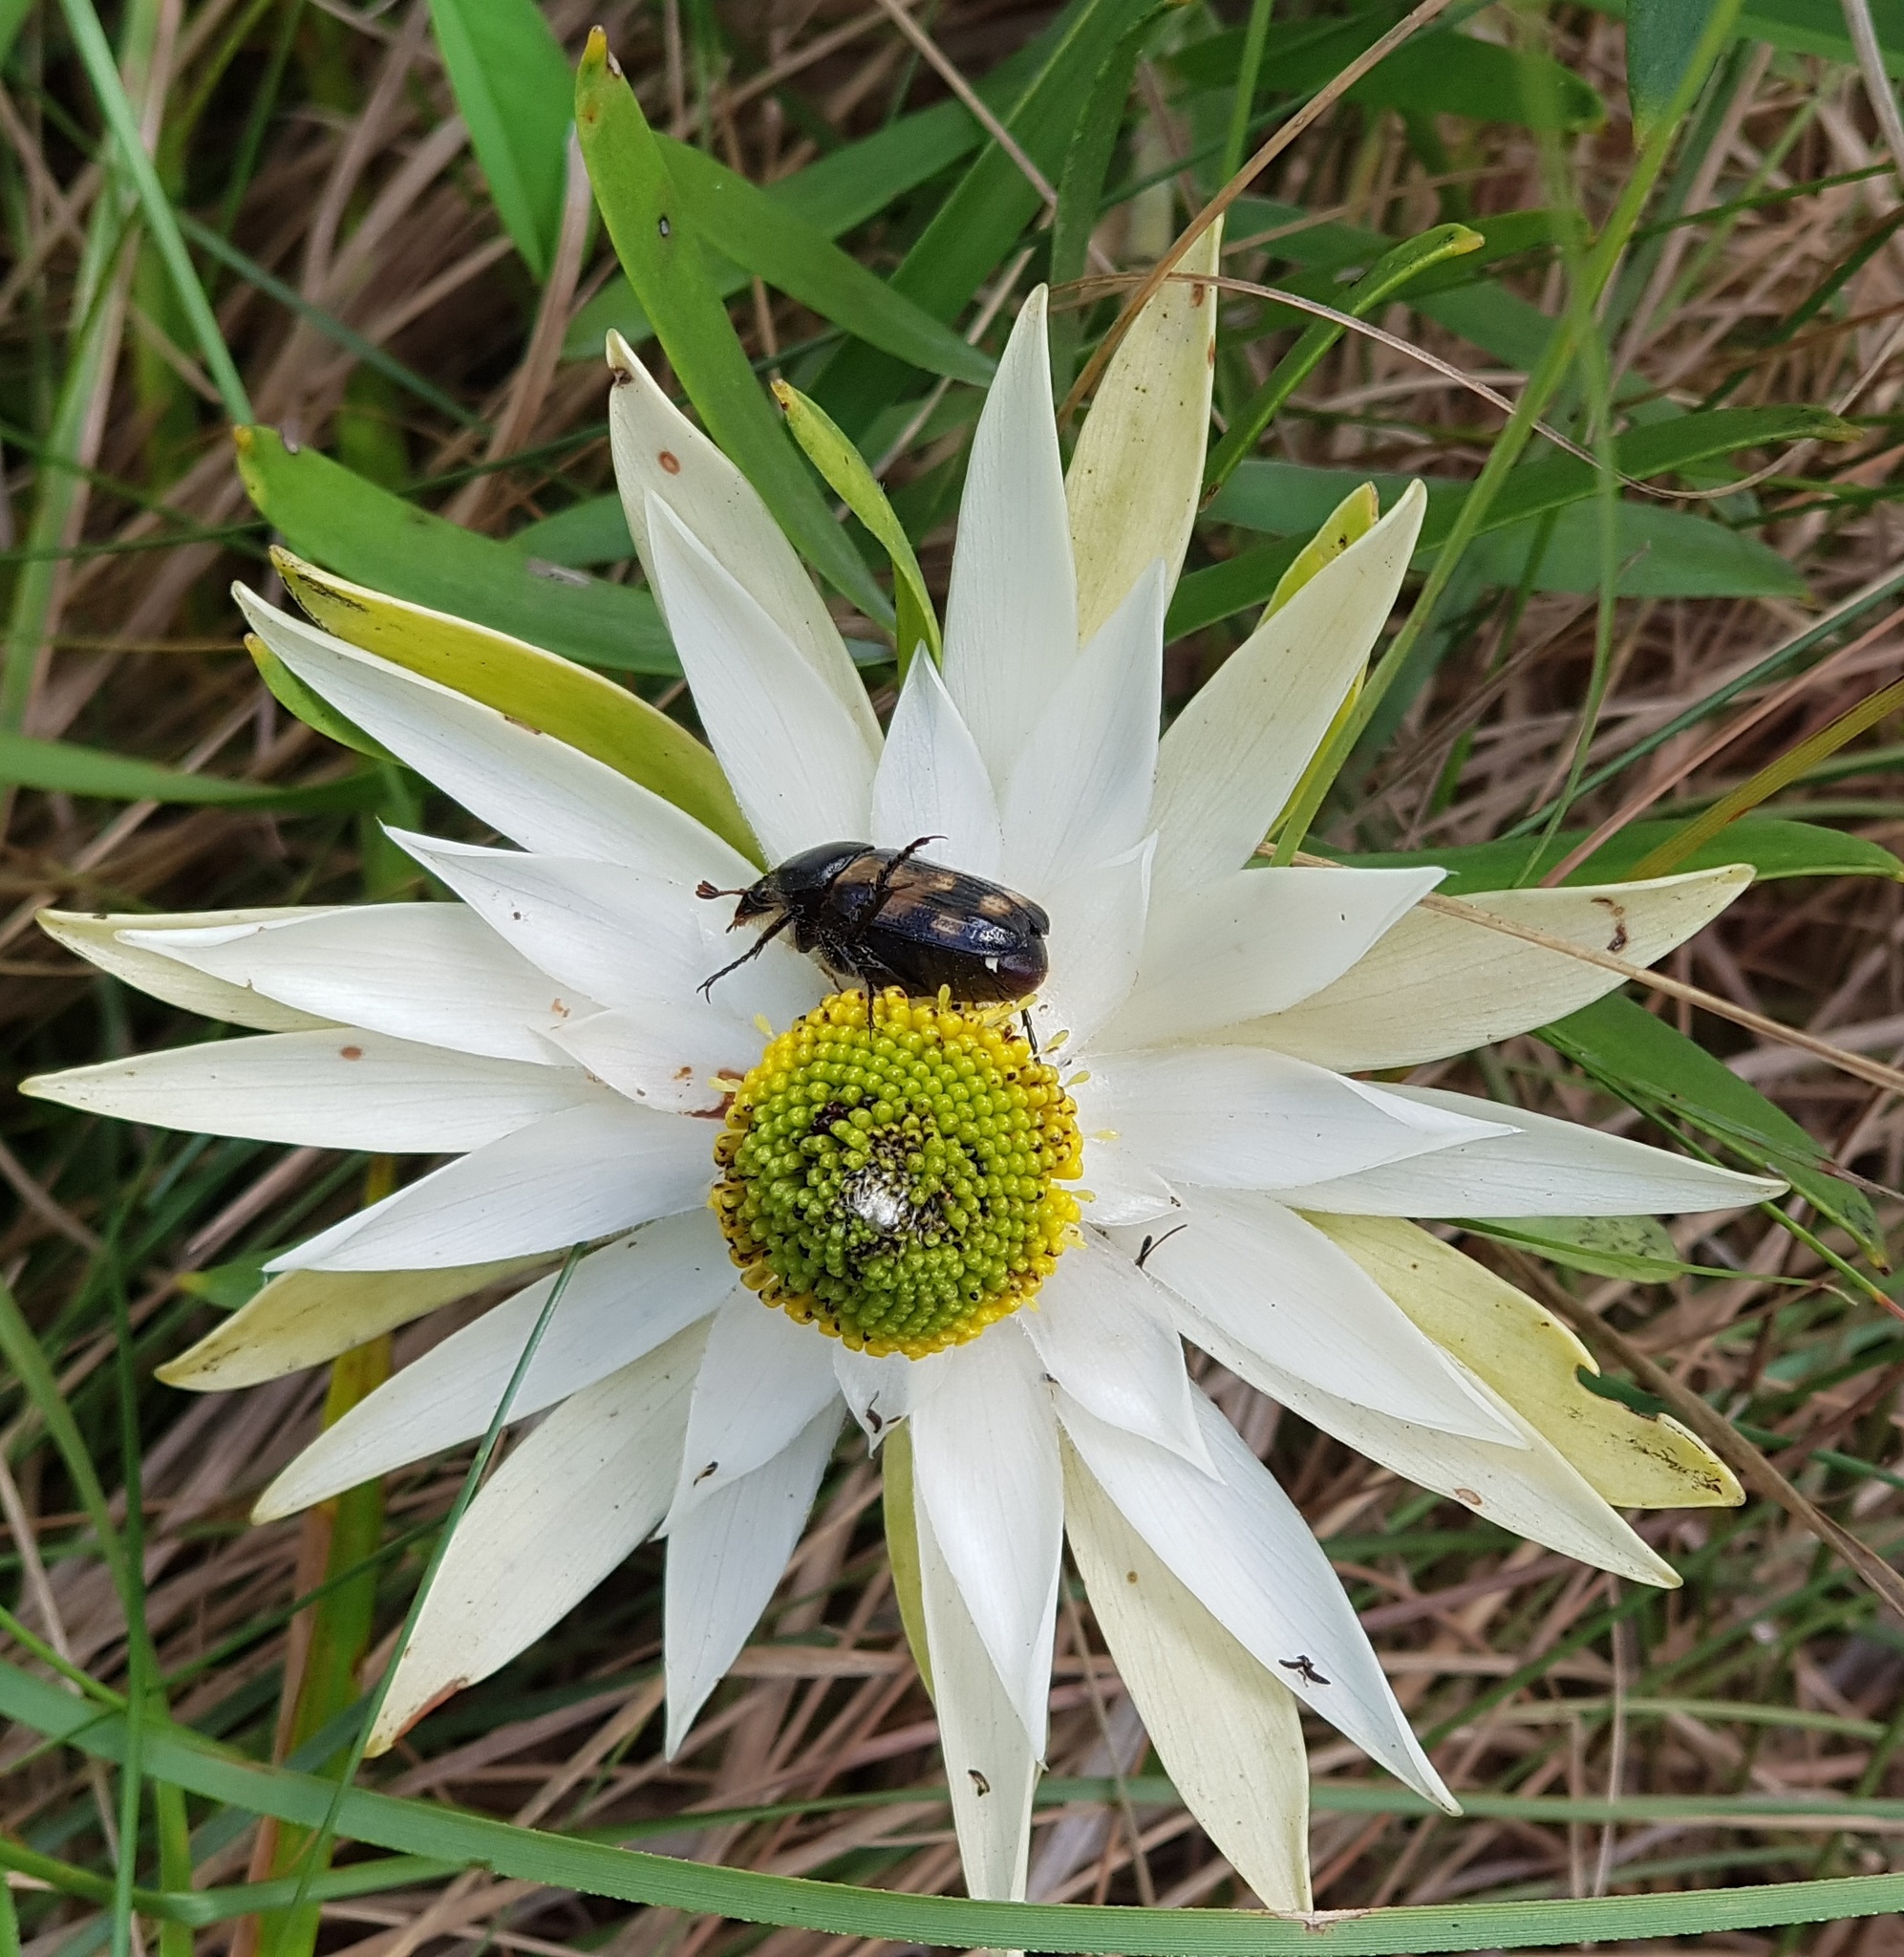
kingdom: Animalia
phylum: Arthropoda
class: Insecta
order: Coleoptera
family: Scarabaeidae
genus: Stripsipher
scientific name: Stripsipher turneri
